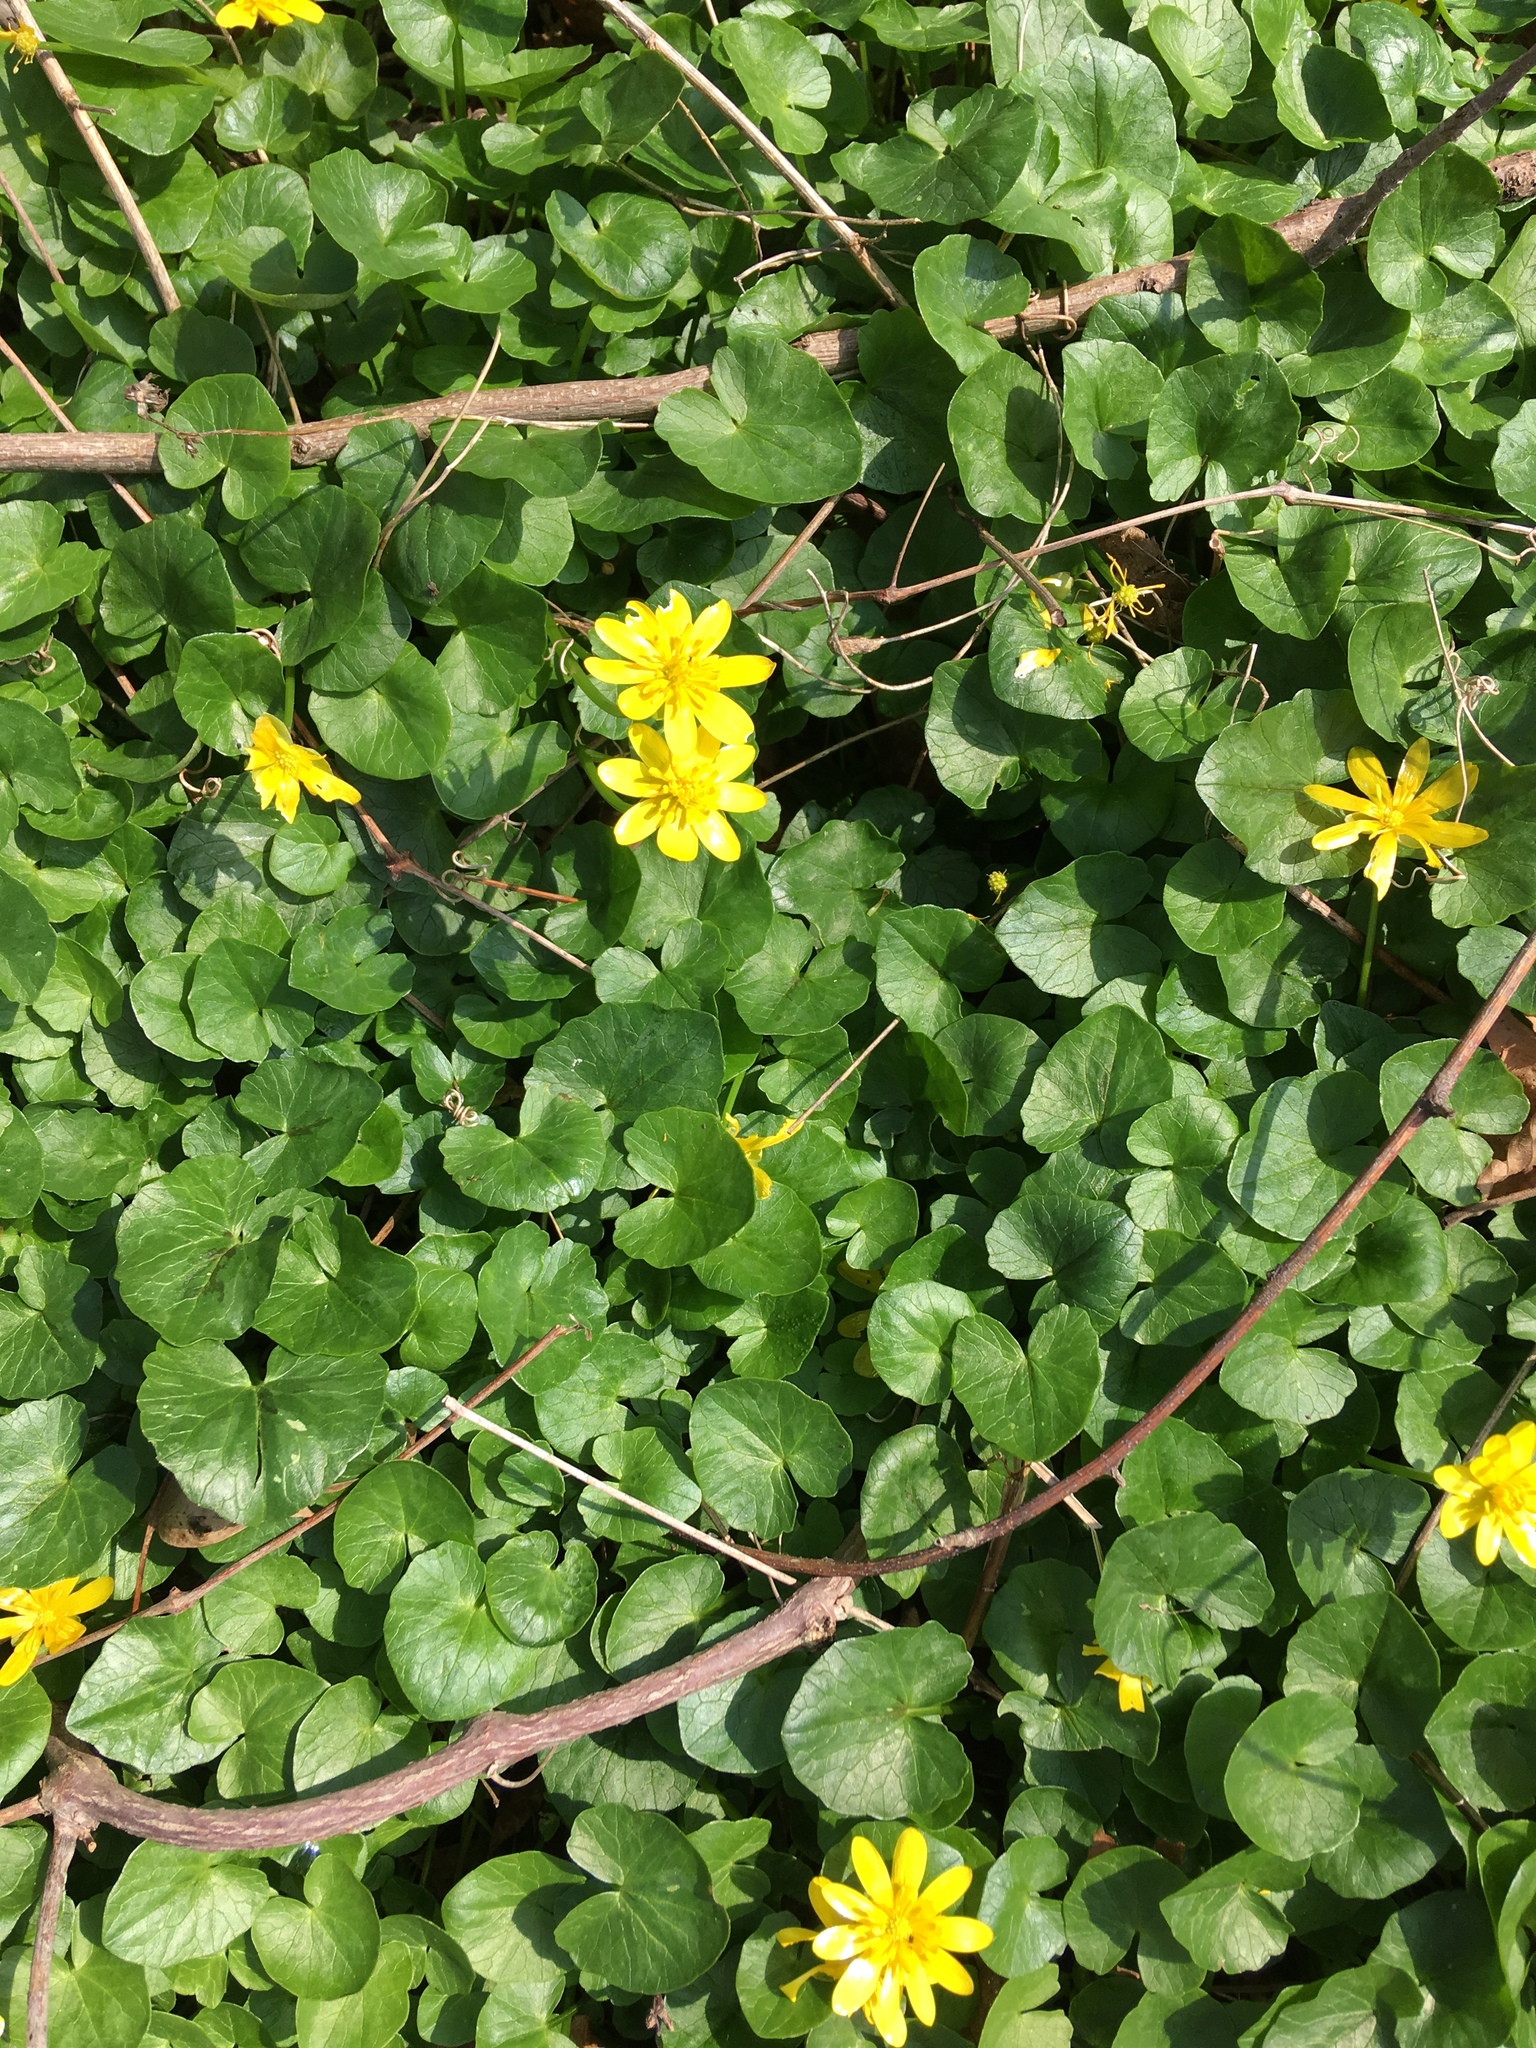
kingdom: Plantae
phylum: Tracheophyta
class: Magnoliopsida
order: Ranunculales
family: Ranunculaceae
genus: Ficaria
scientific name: Ficaria verna
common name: Lesser celandine
